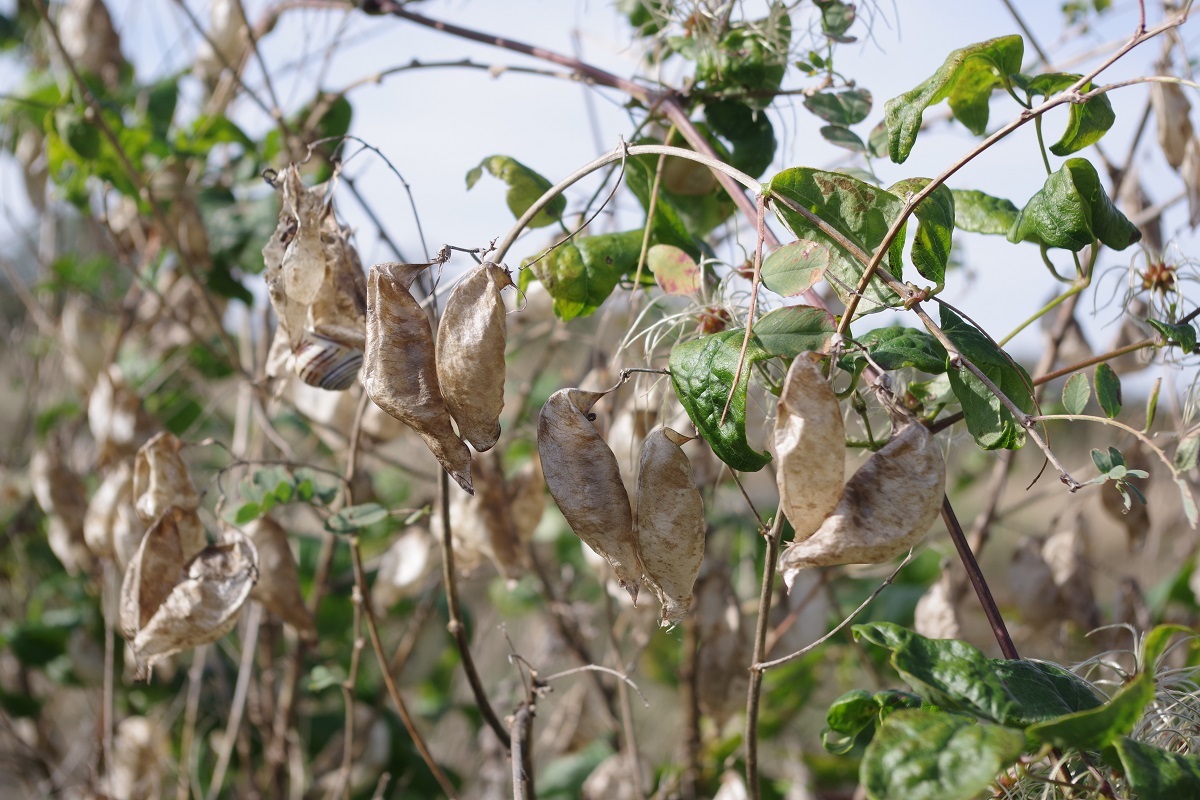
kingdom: Plantae
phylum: Tracheophyta
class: Magnoliopsida
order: Fabales
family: Fabaceae
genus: Colutea
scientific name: Colutea arborescens
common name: Bladder-senna
